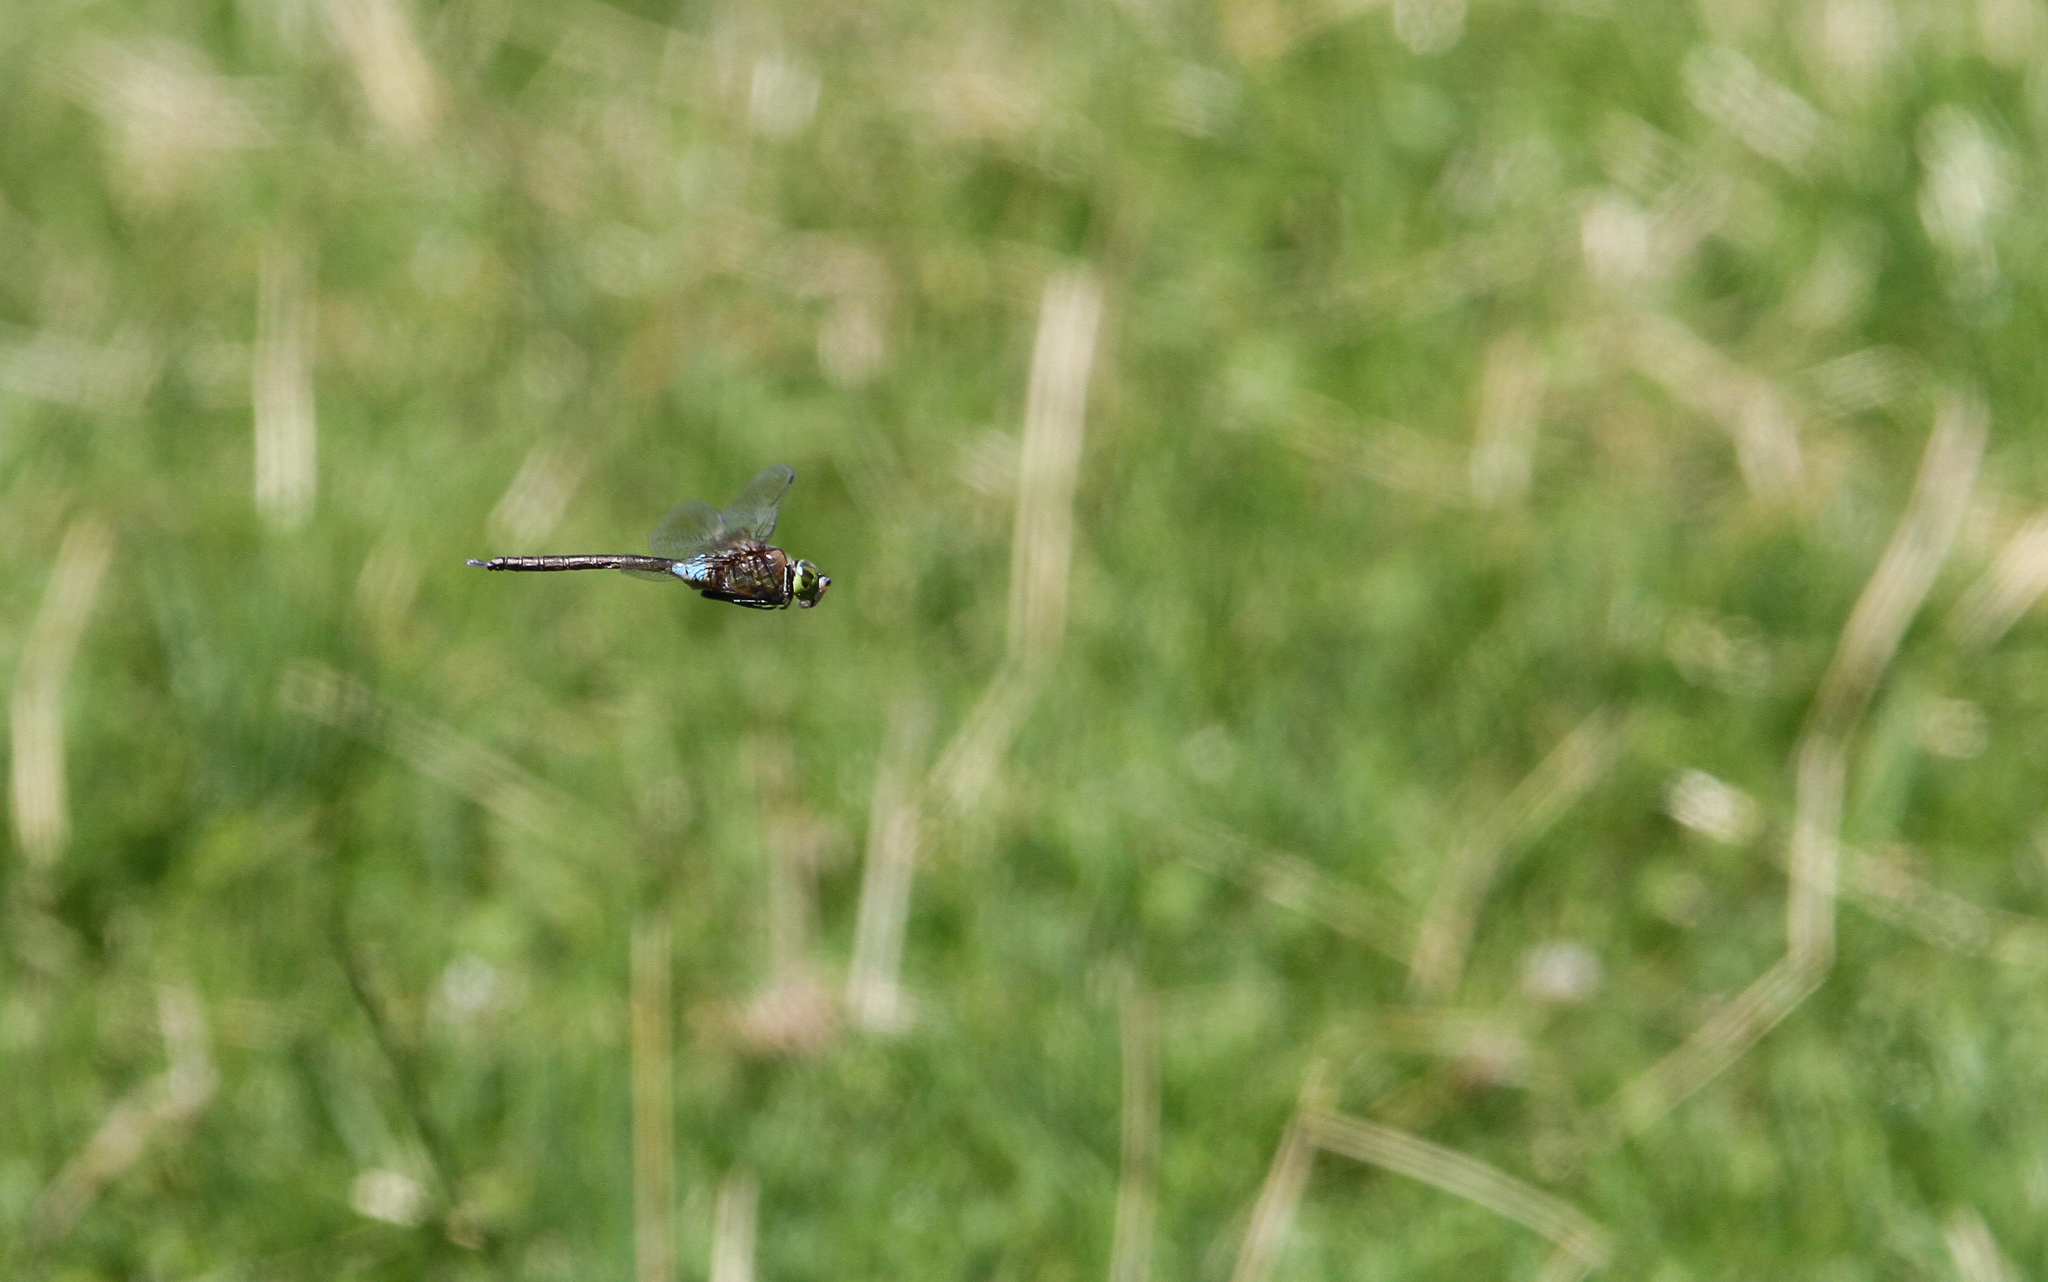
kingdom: Animalia
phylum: Arthropoda
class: Insecta
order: Odonata
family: Aeshnidae
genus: Anax
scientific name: Anax parthenope
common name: Lesser emperor
